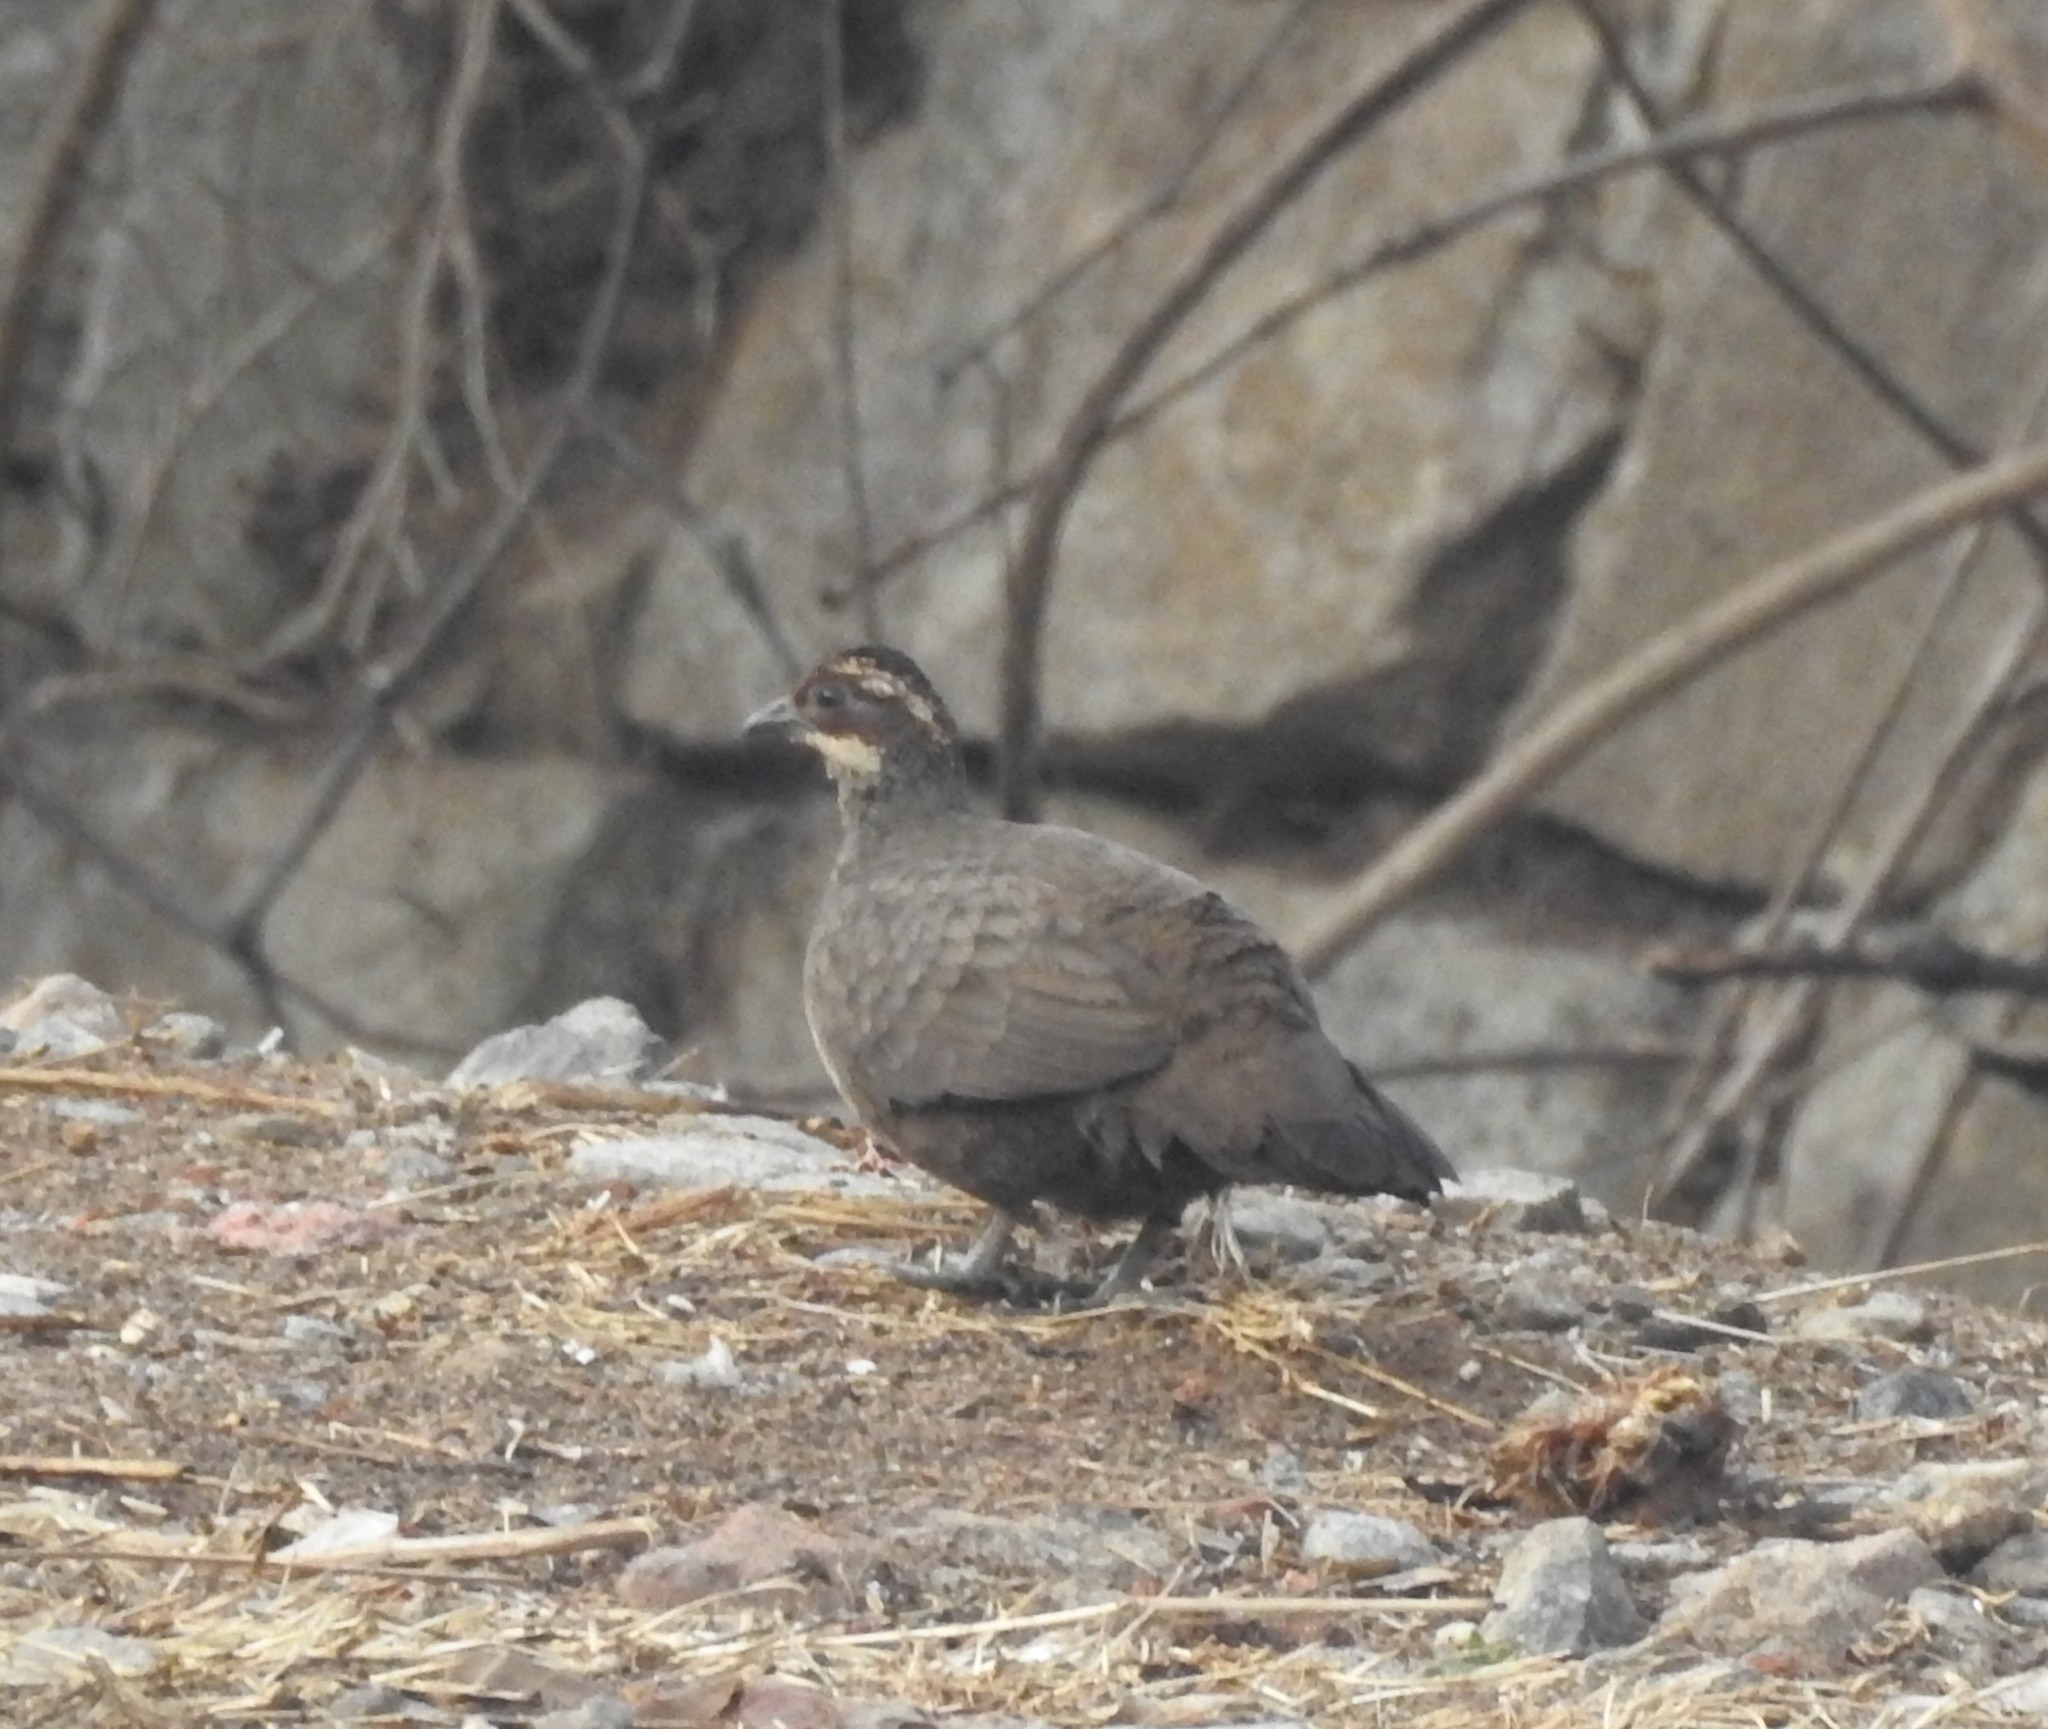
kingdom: Animalia
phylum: Chordata
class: Aves
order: Galliformes
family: Phasianidae
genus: Galloperdix
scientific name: Galloperdix lunulata
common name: Painted spurfowl
